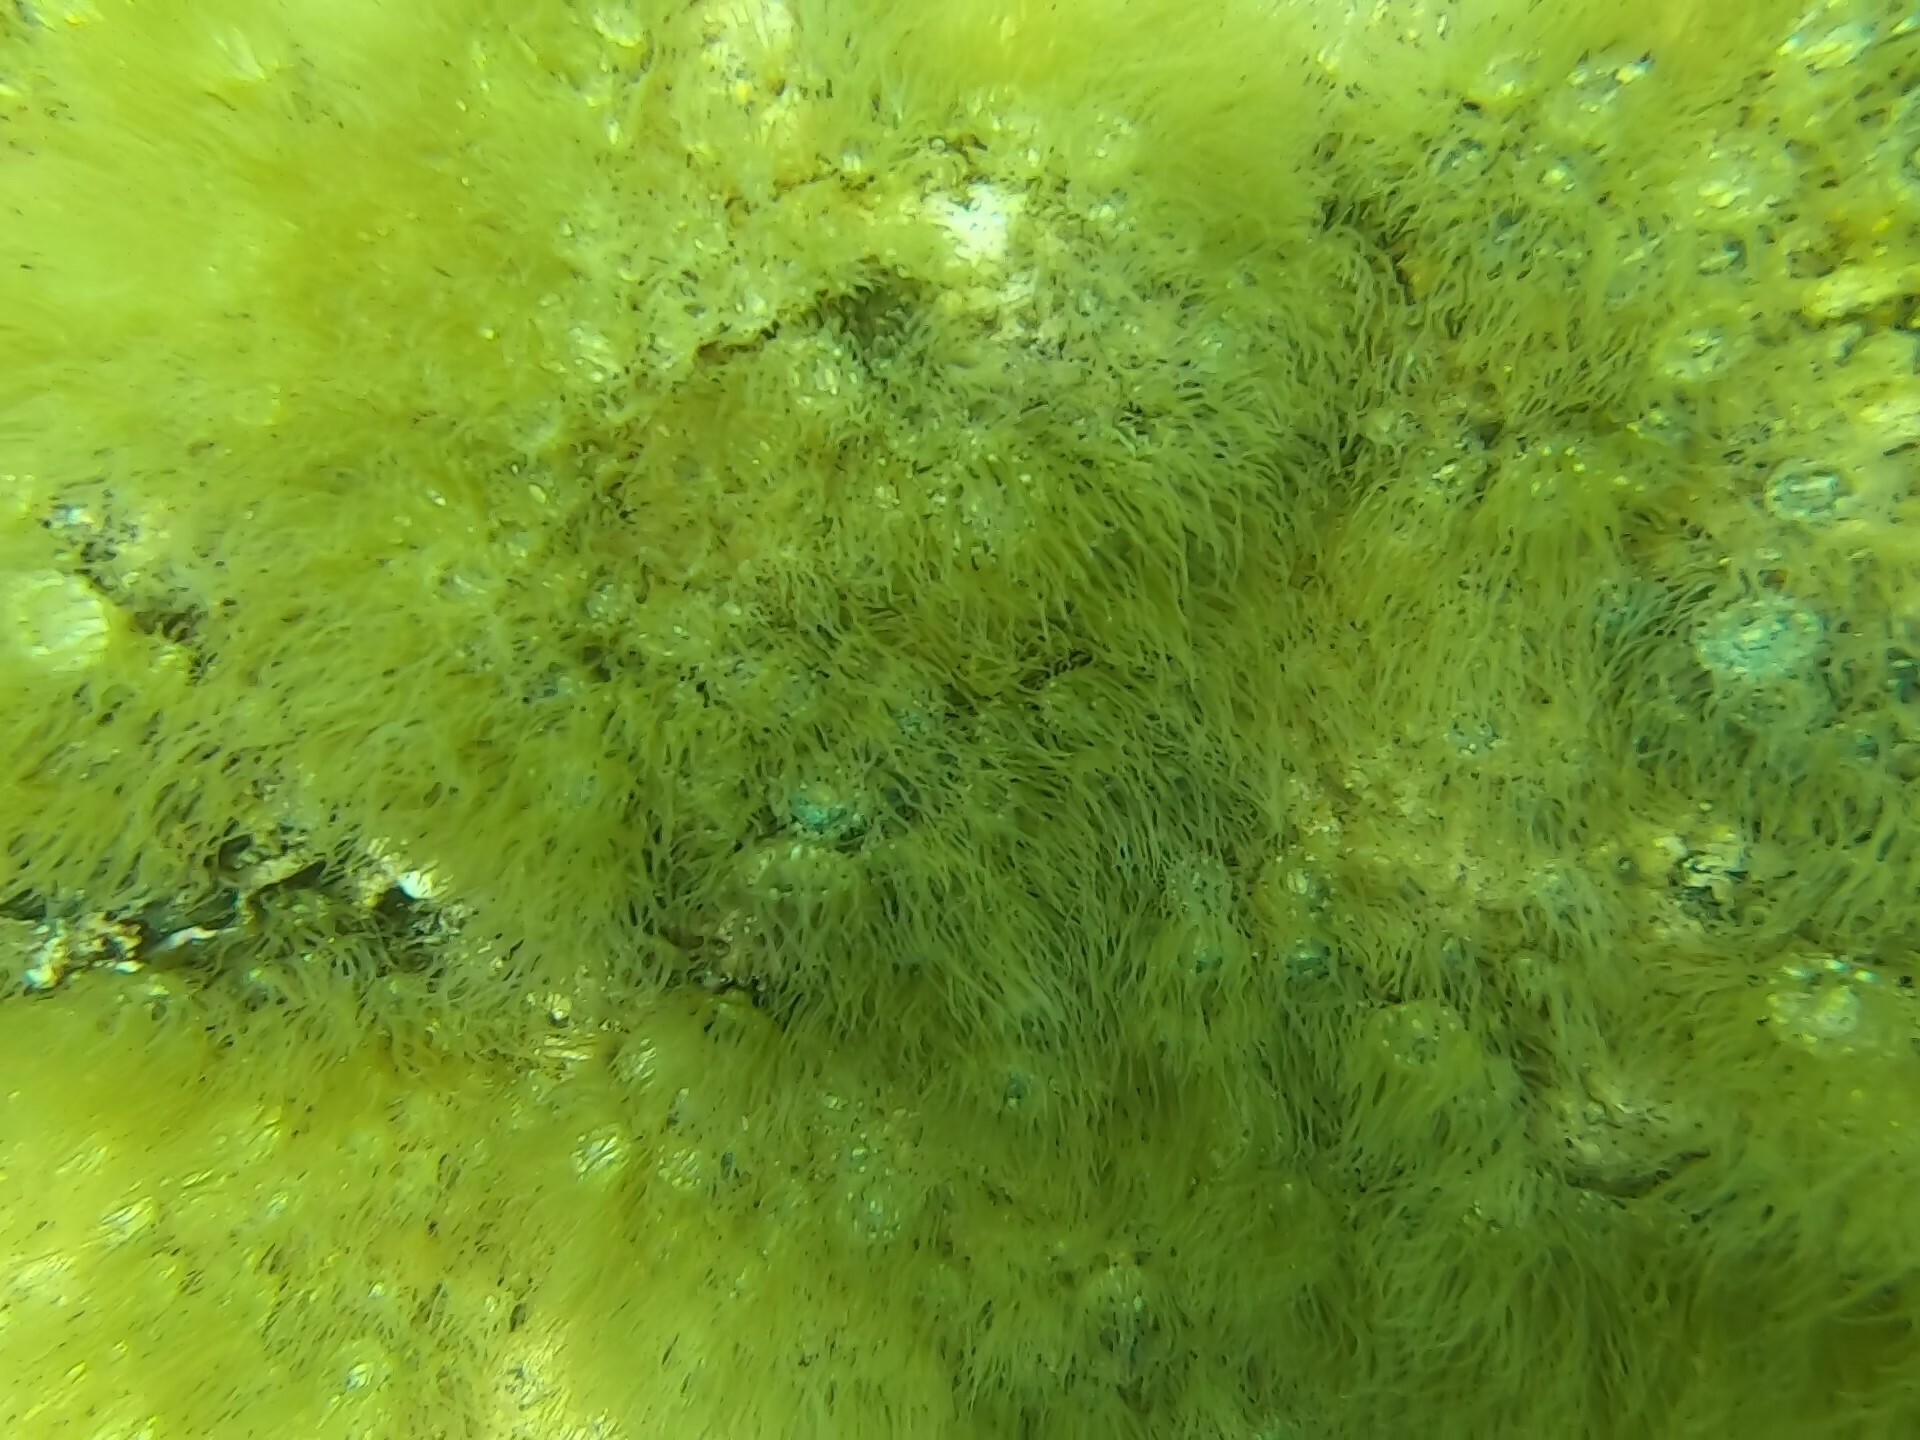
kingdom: Animalia
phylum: Cnidaria
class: Anthozoa
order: Actiniaria
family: Aiptasiidae
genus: Exaiptasia
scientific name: Exaiptasia diaphana
